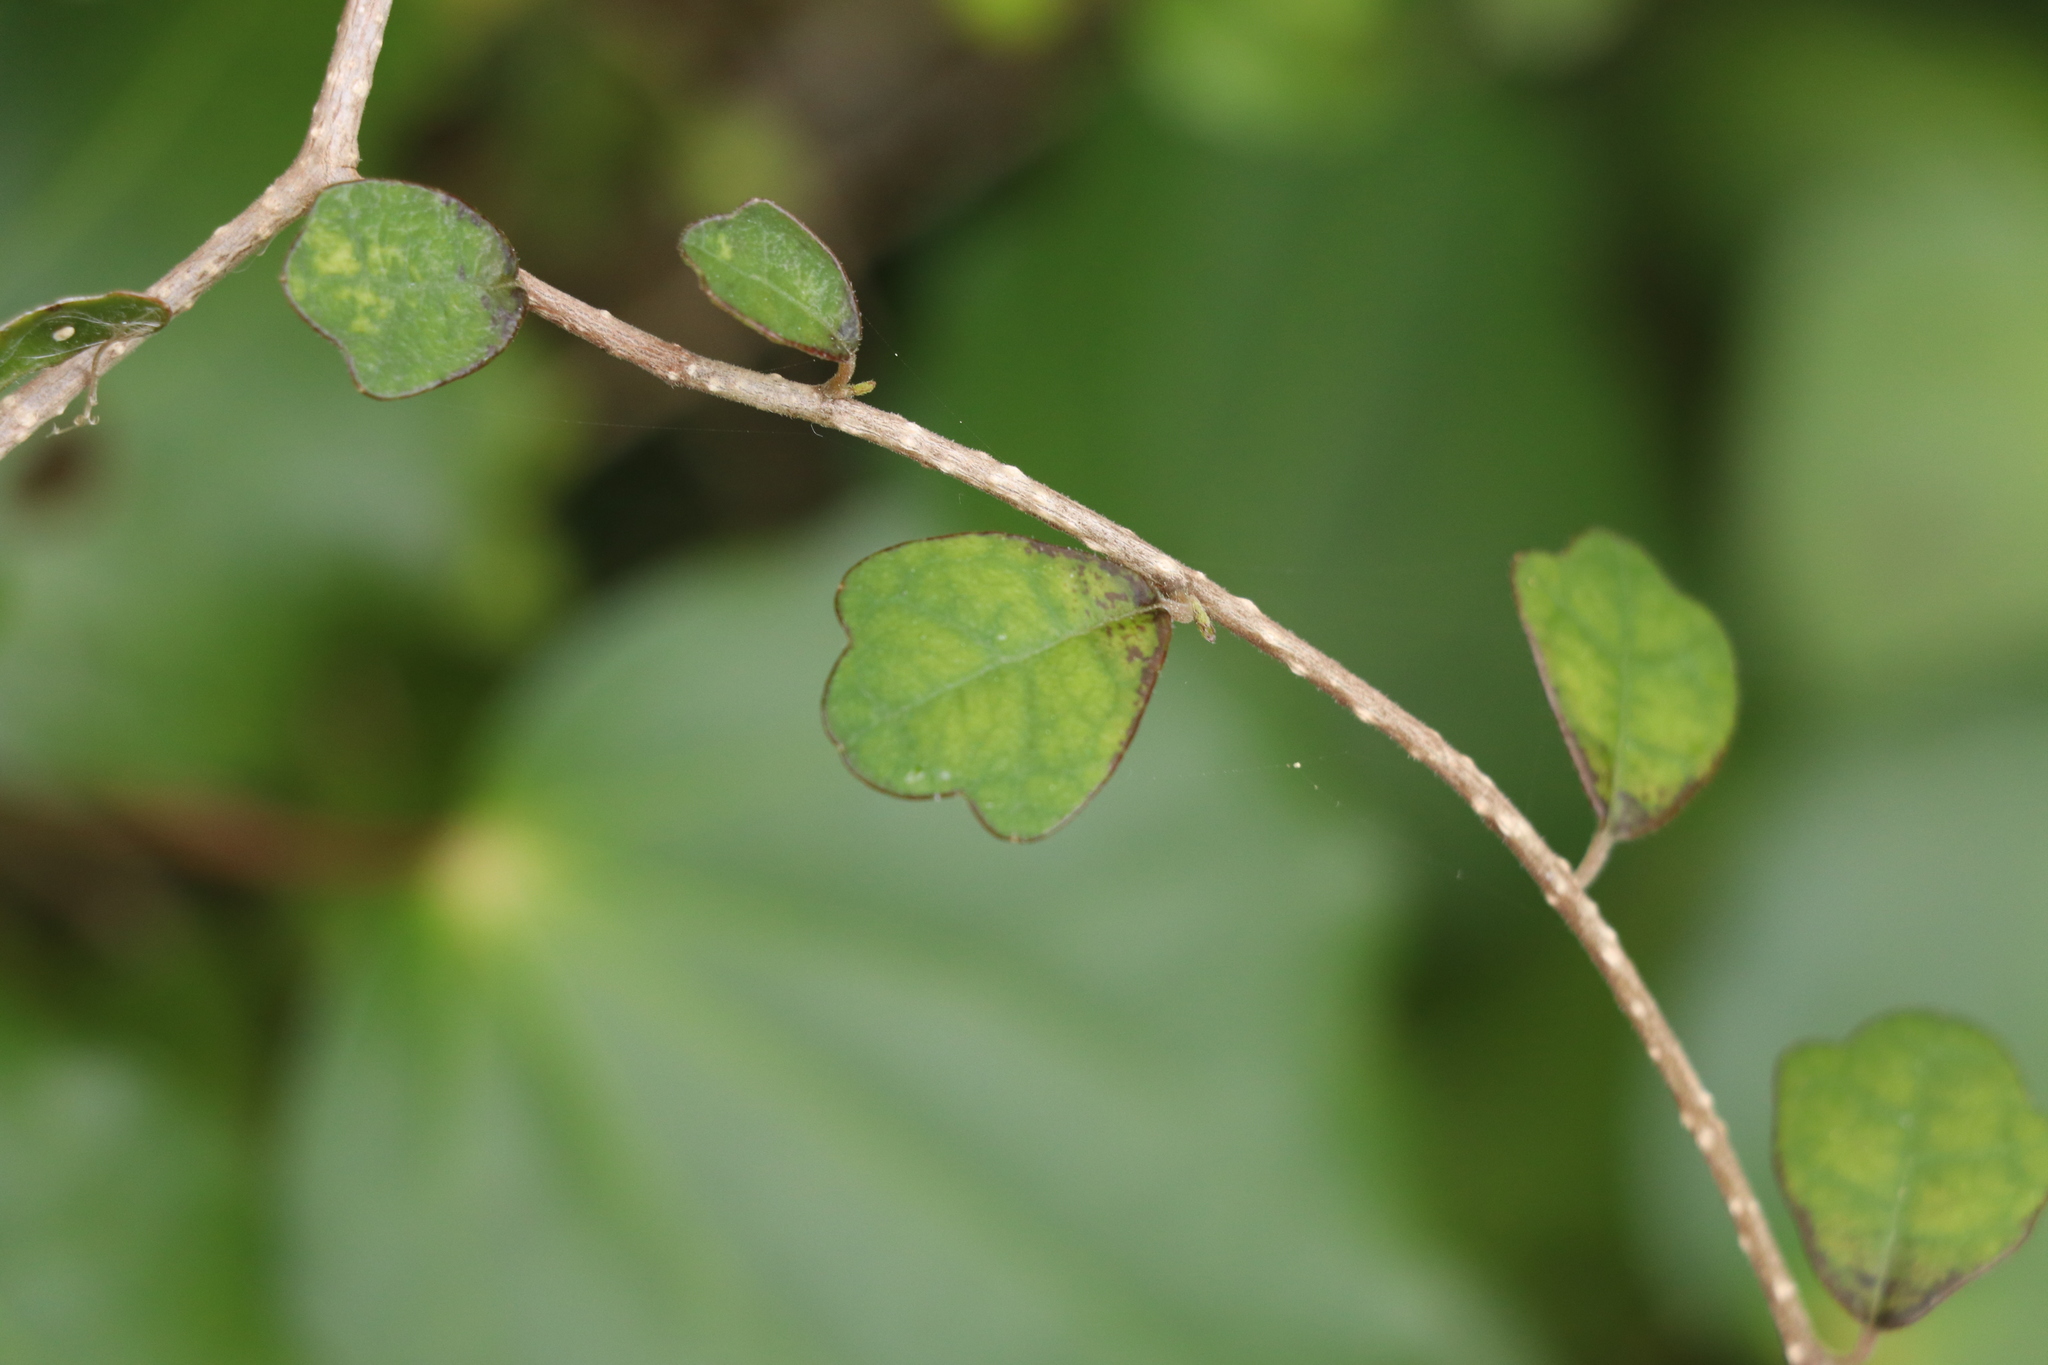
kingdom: Plantae
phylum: Tracheophyta
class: Magnoliopsida
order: Apiales
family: Pennantiaceae
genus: Pennantia
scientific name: Pennantia corymbosa
